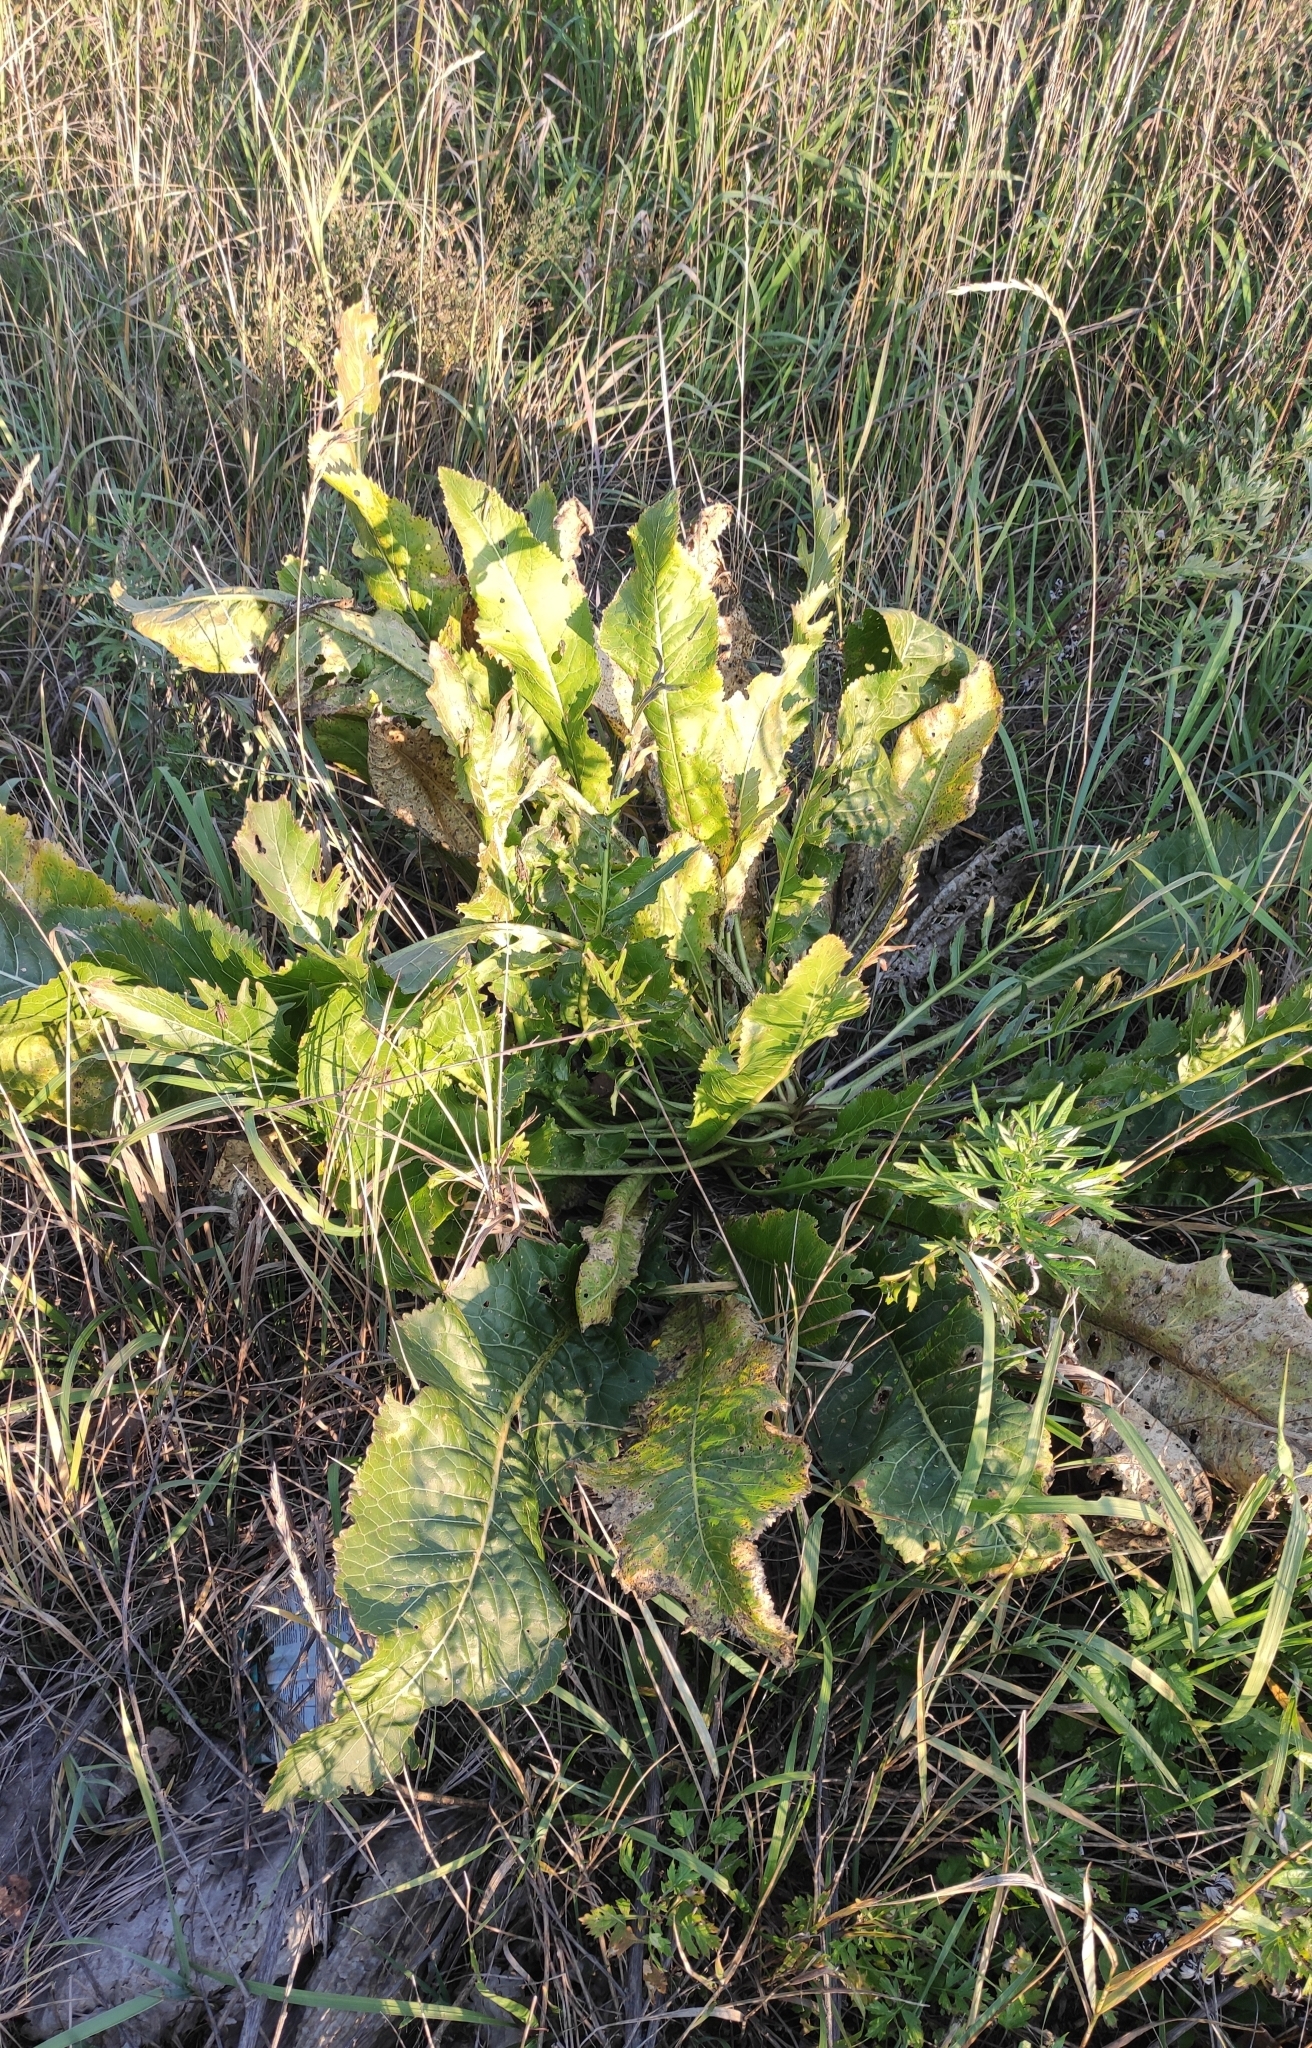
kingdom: Plantae
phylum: Tracheophyta
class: Magnoliopsida
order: Brassicales
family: Brassicaceae
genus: Armoracia
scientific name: Armoracia rusticana
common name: Horseradish
